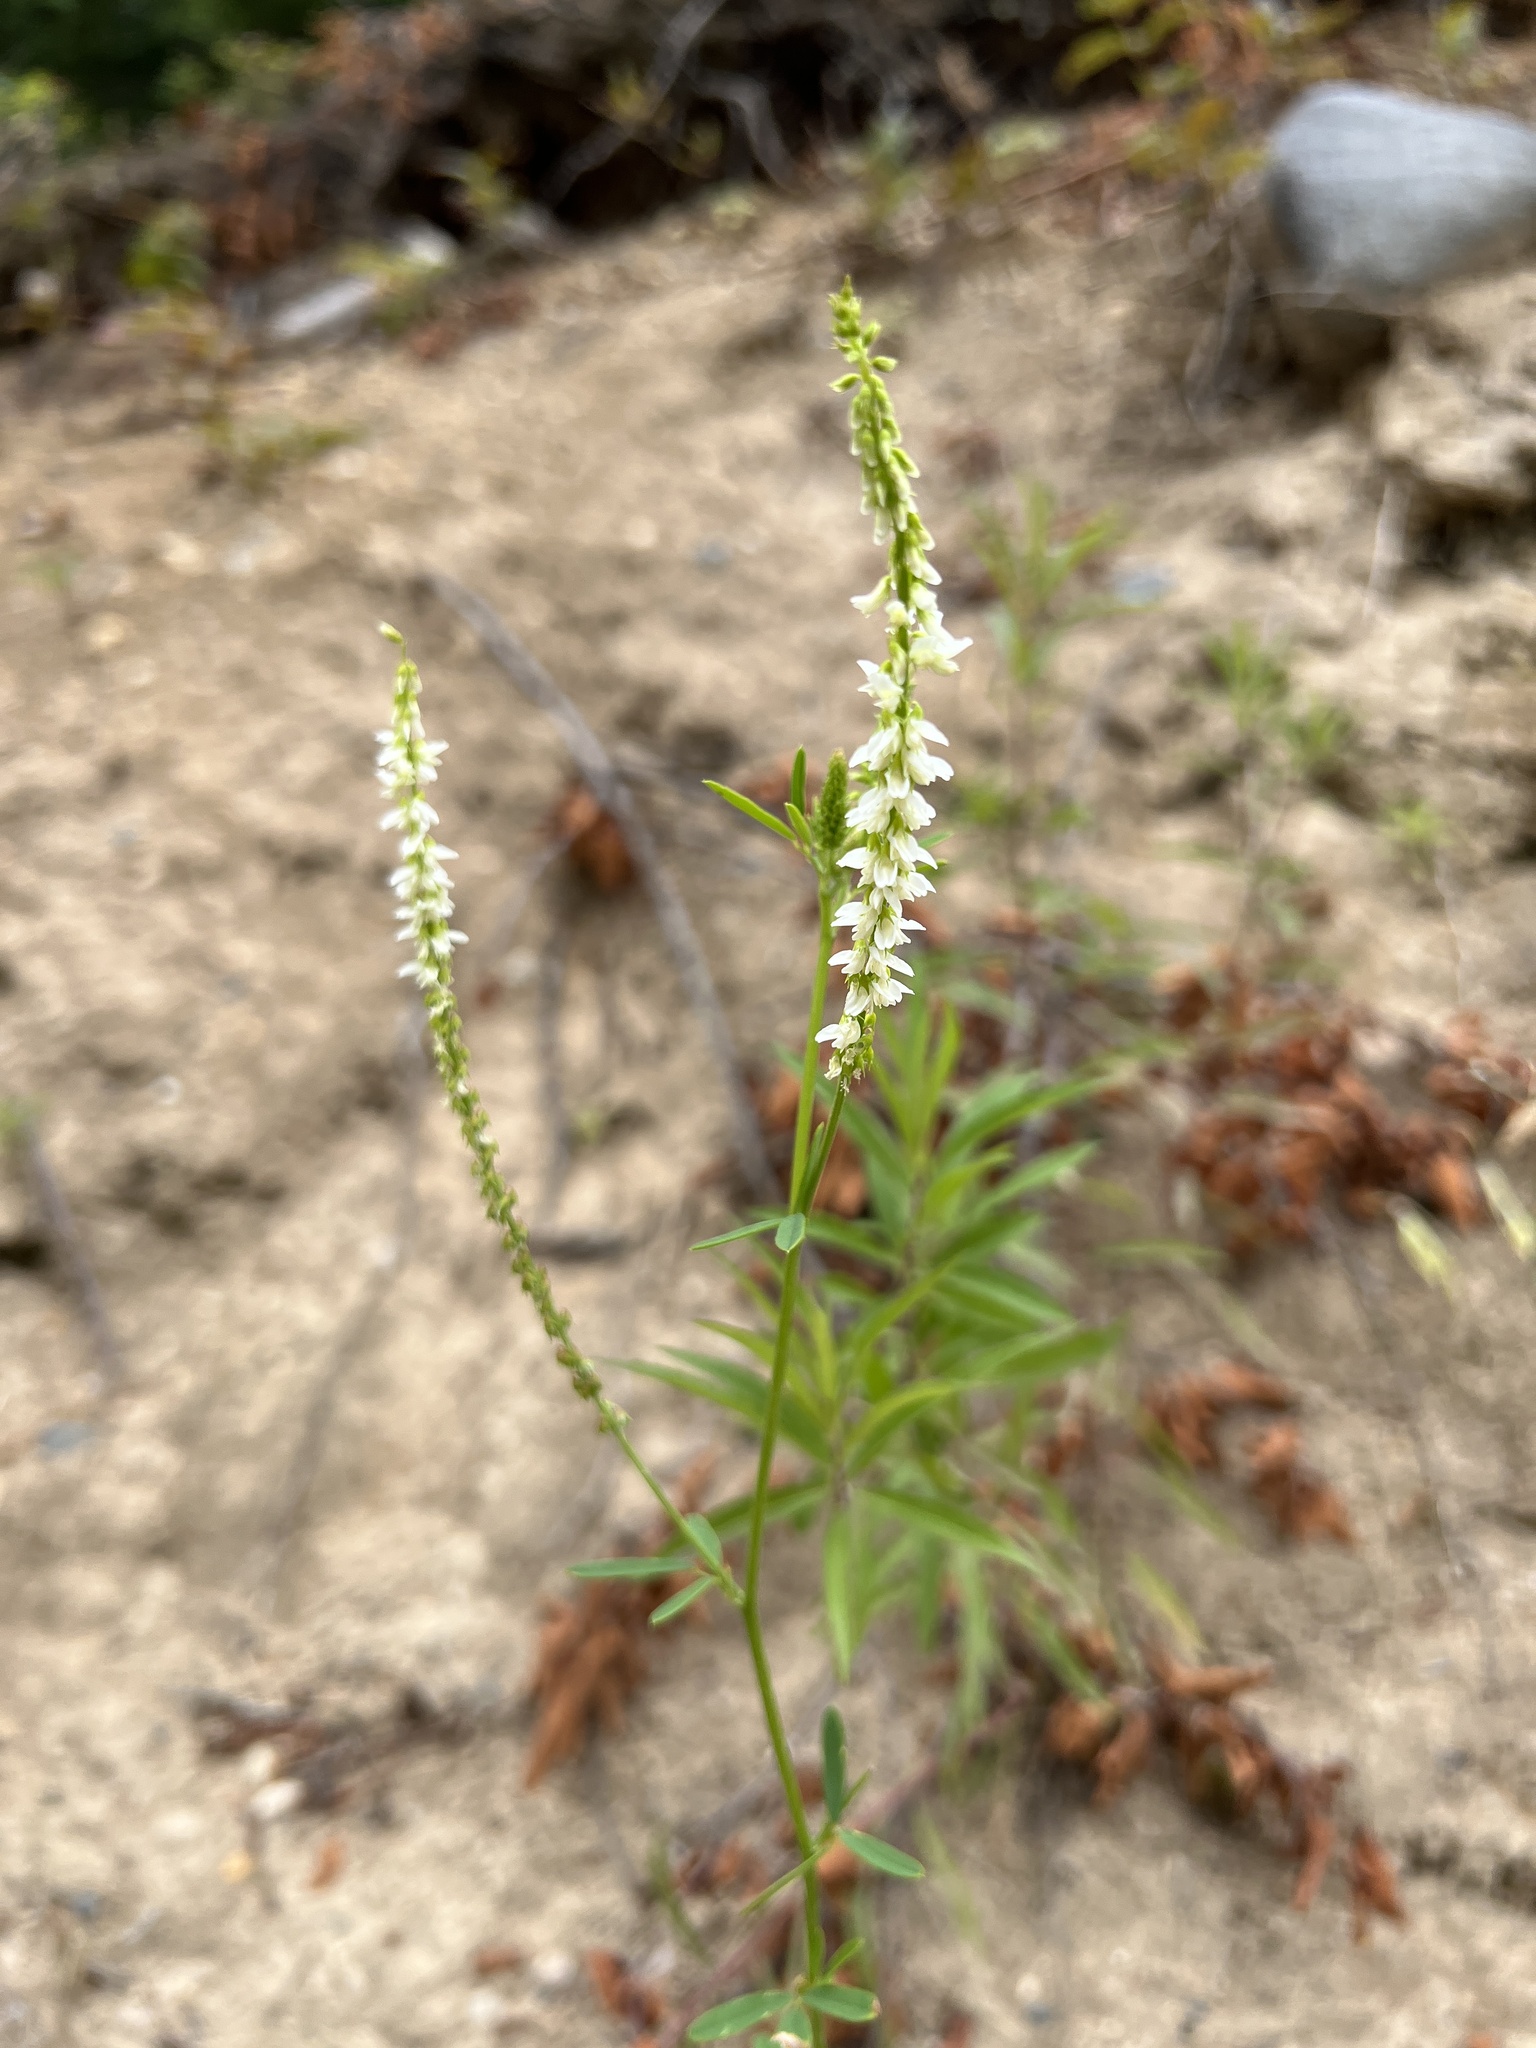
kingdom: Plantae
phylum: Tracheophyta
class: Magnoliopsida
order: Fabales
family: Fabaceae
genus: Melilotus
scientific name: Melilotus albus
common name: White melilot
